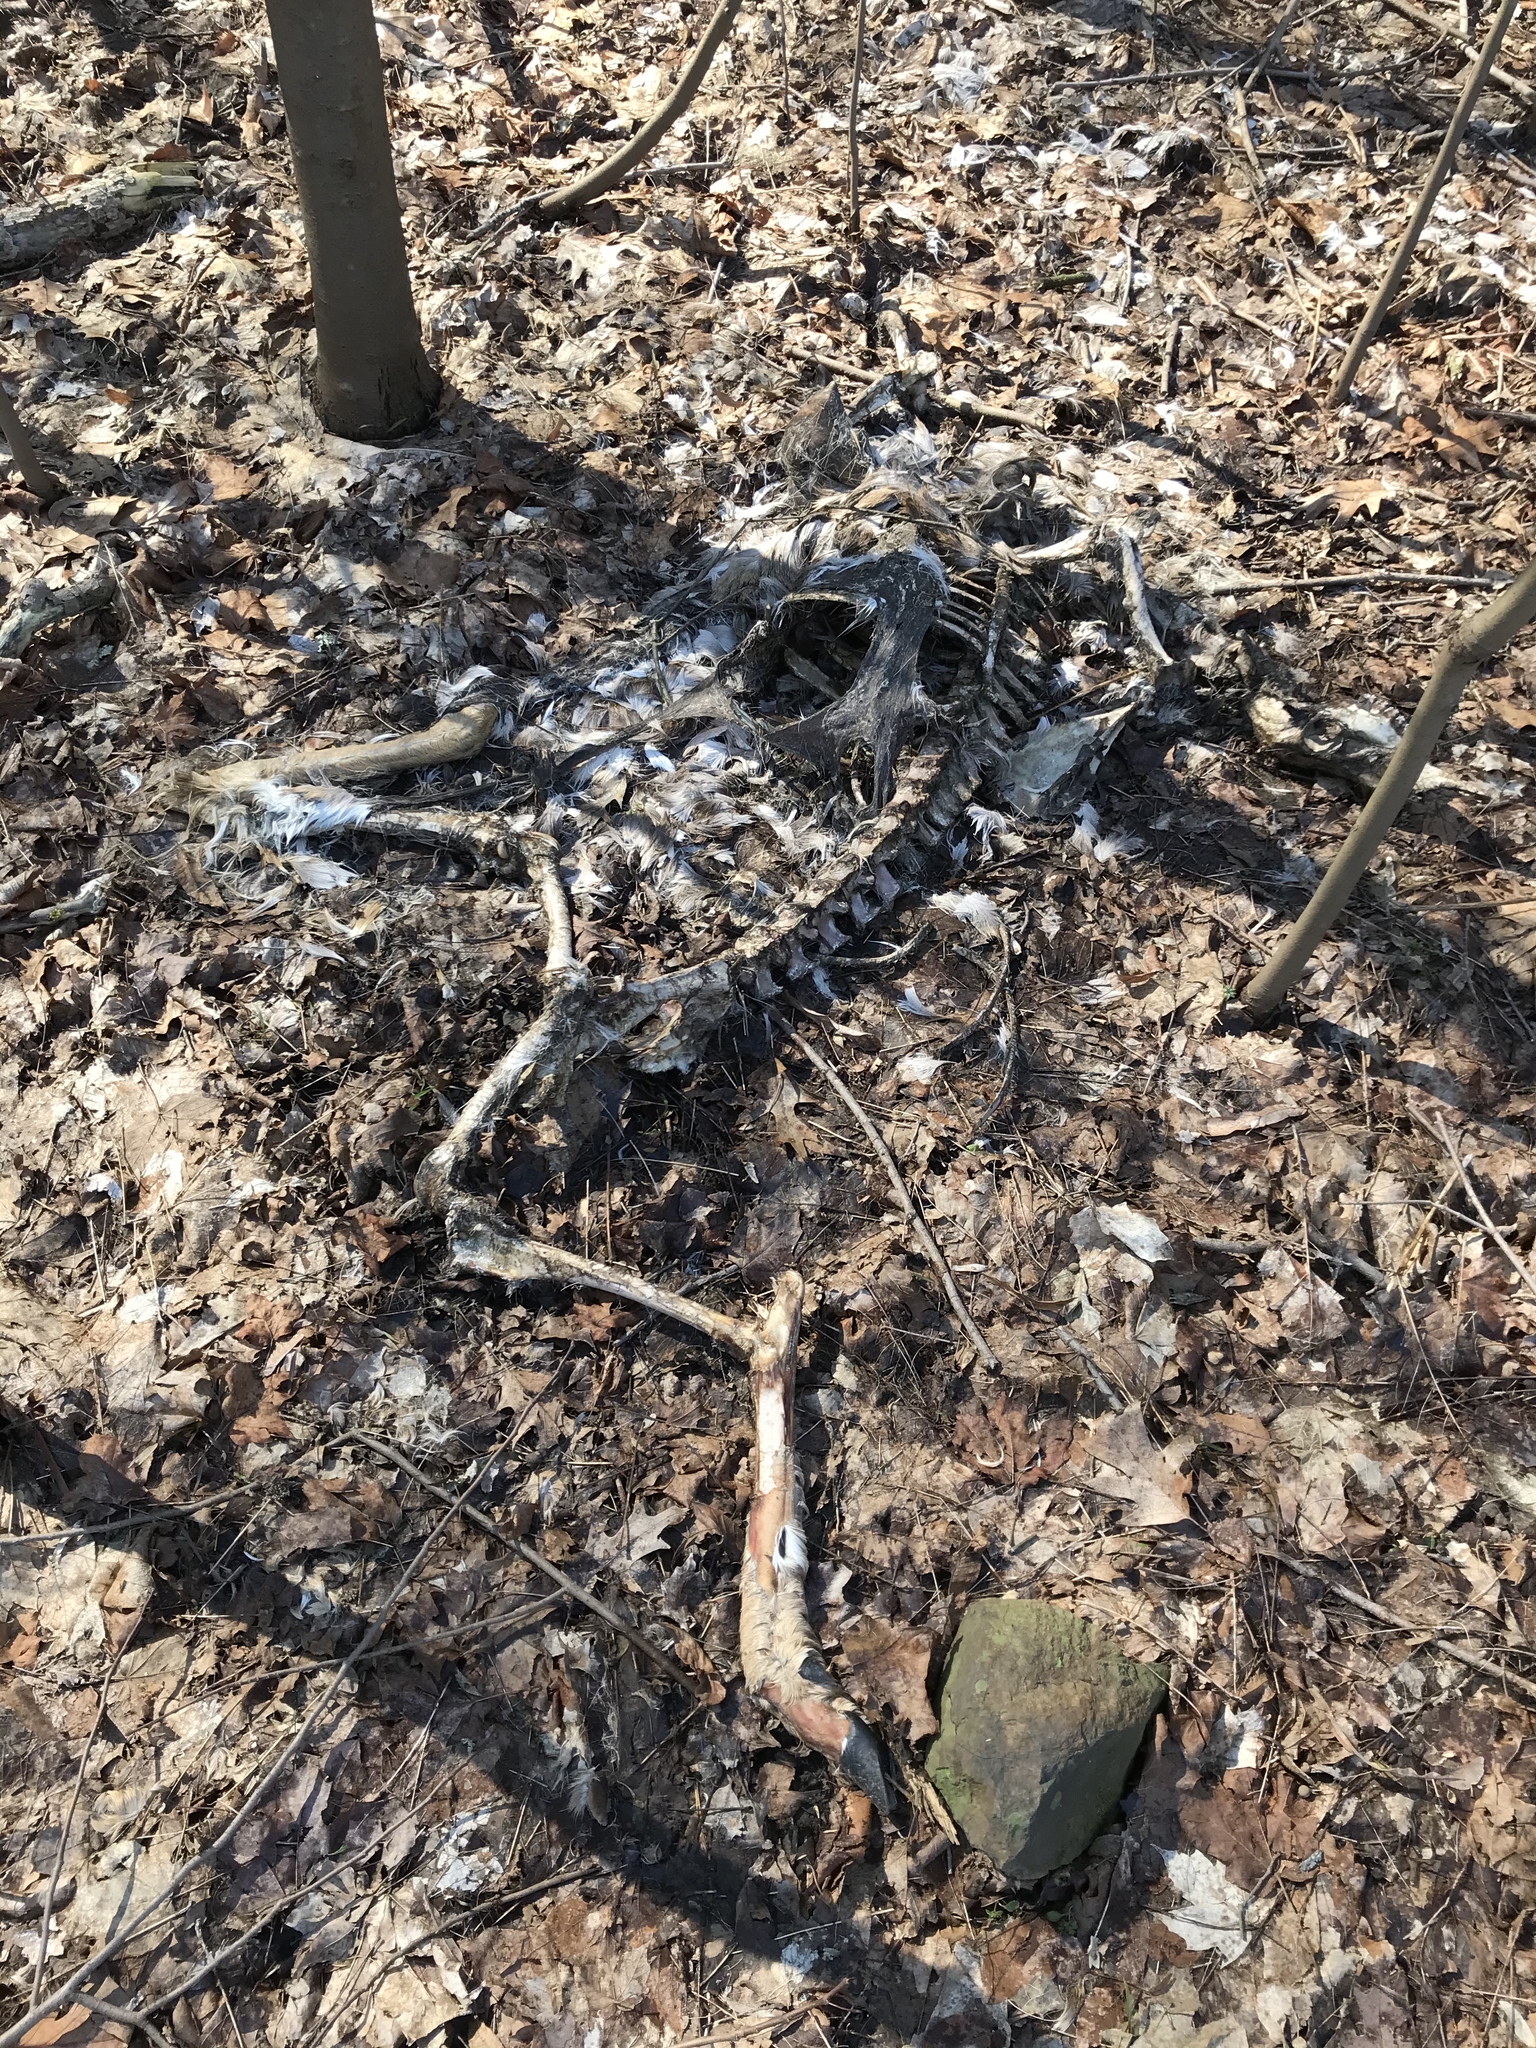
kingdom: Animalia
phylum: Chordata
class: Mammalia
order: Artiodactyla
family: Cervidae
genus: Odocoileus
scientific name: Odocoileus virginianus
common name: White-tailed deer
